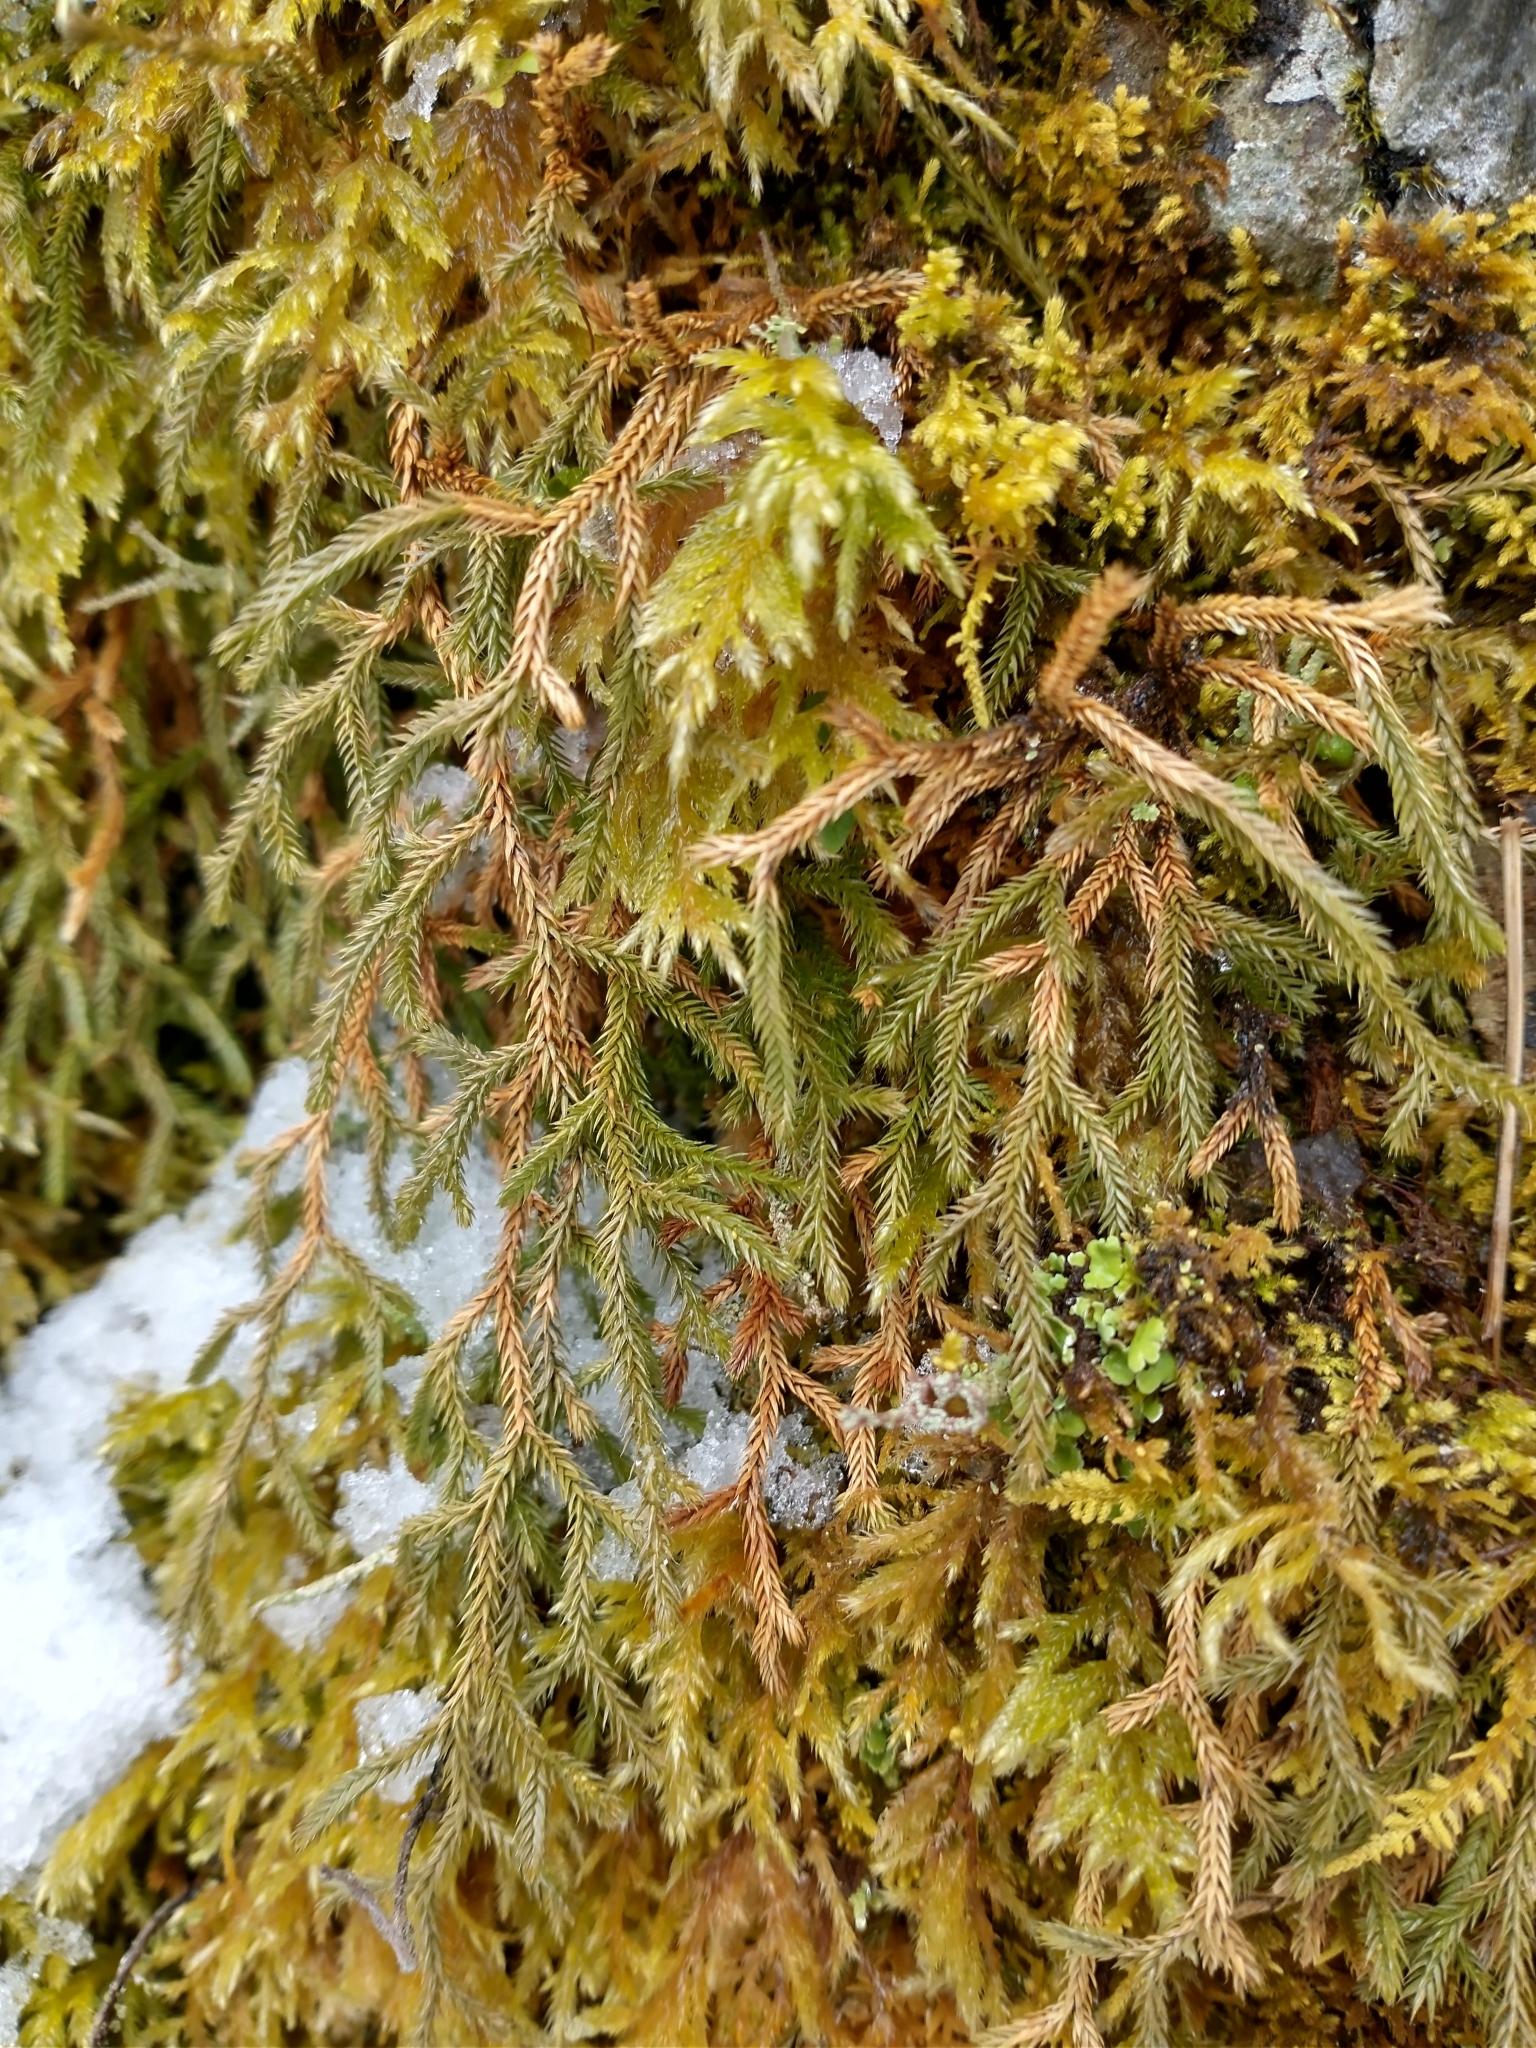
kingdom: Plantae
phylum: Tracheophyta
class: Lycopodiopsida
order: Selaginellales
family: Selaginellaceae
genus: Selaginella
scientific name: Selaginella oregana
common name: Oregon selaginella
